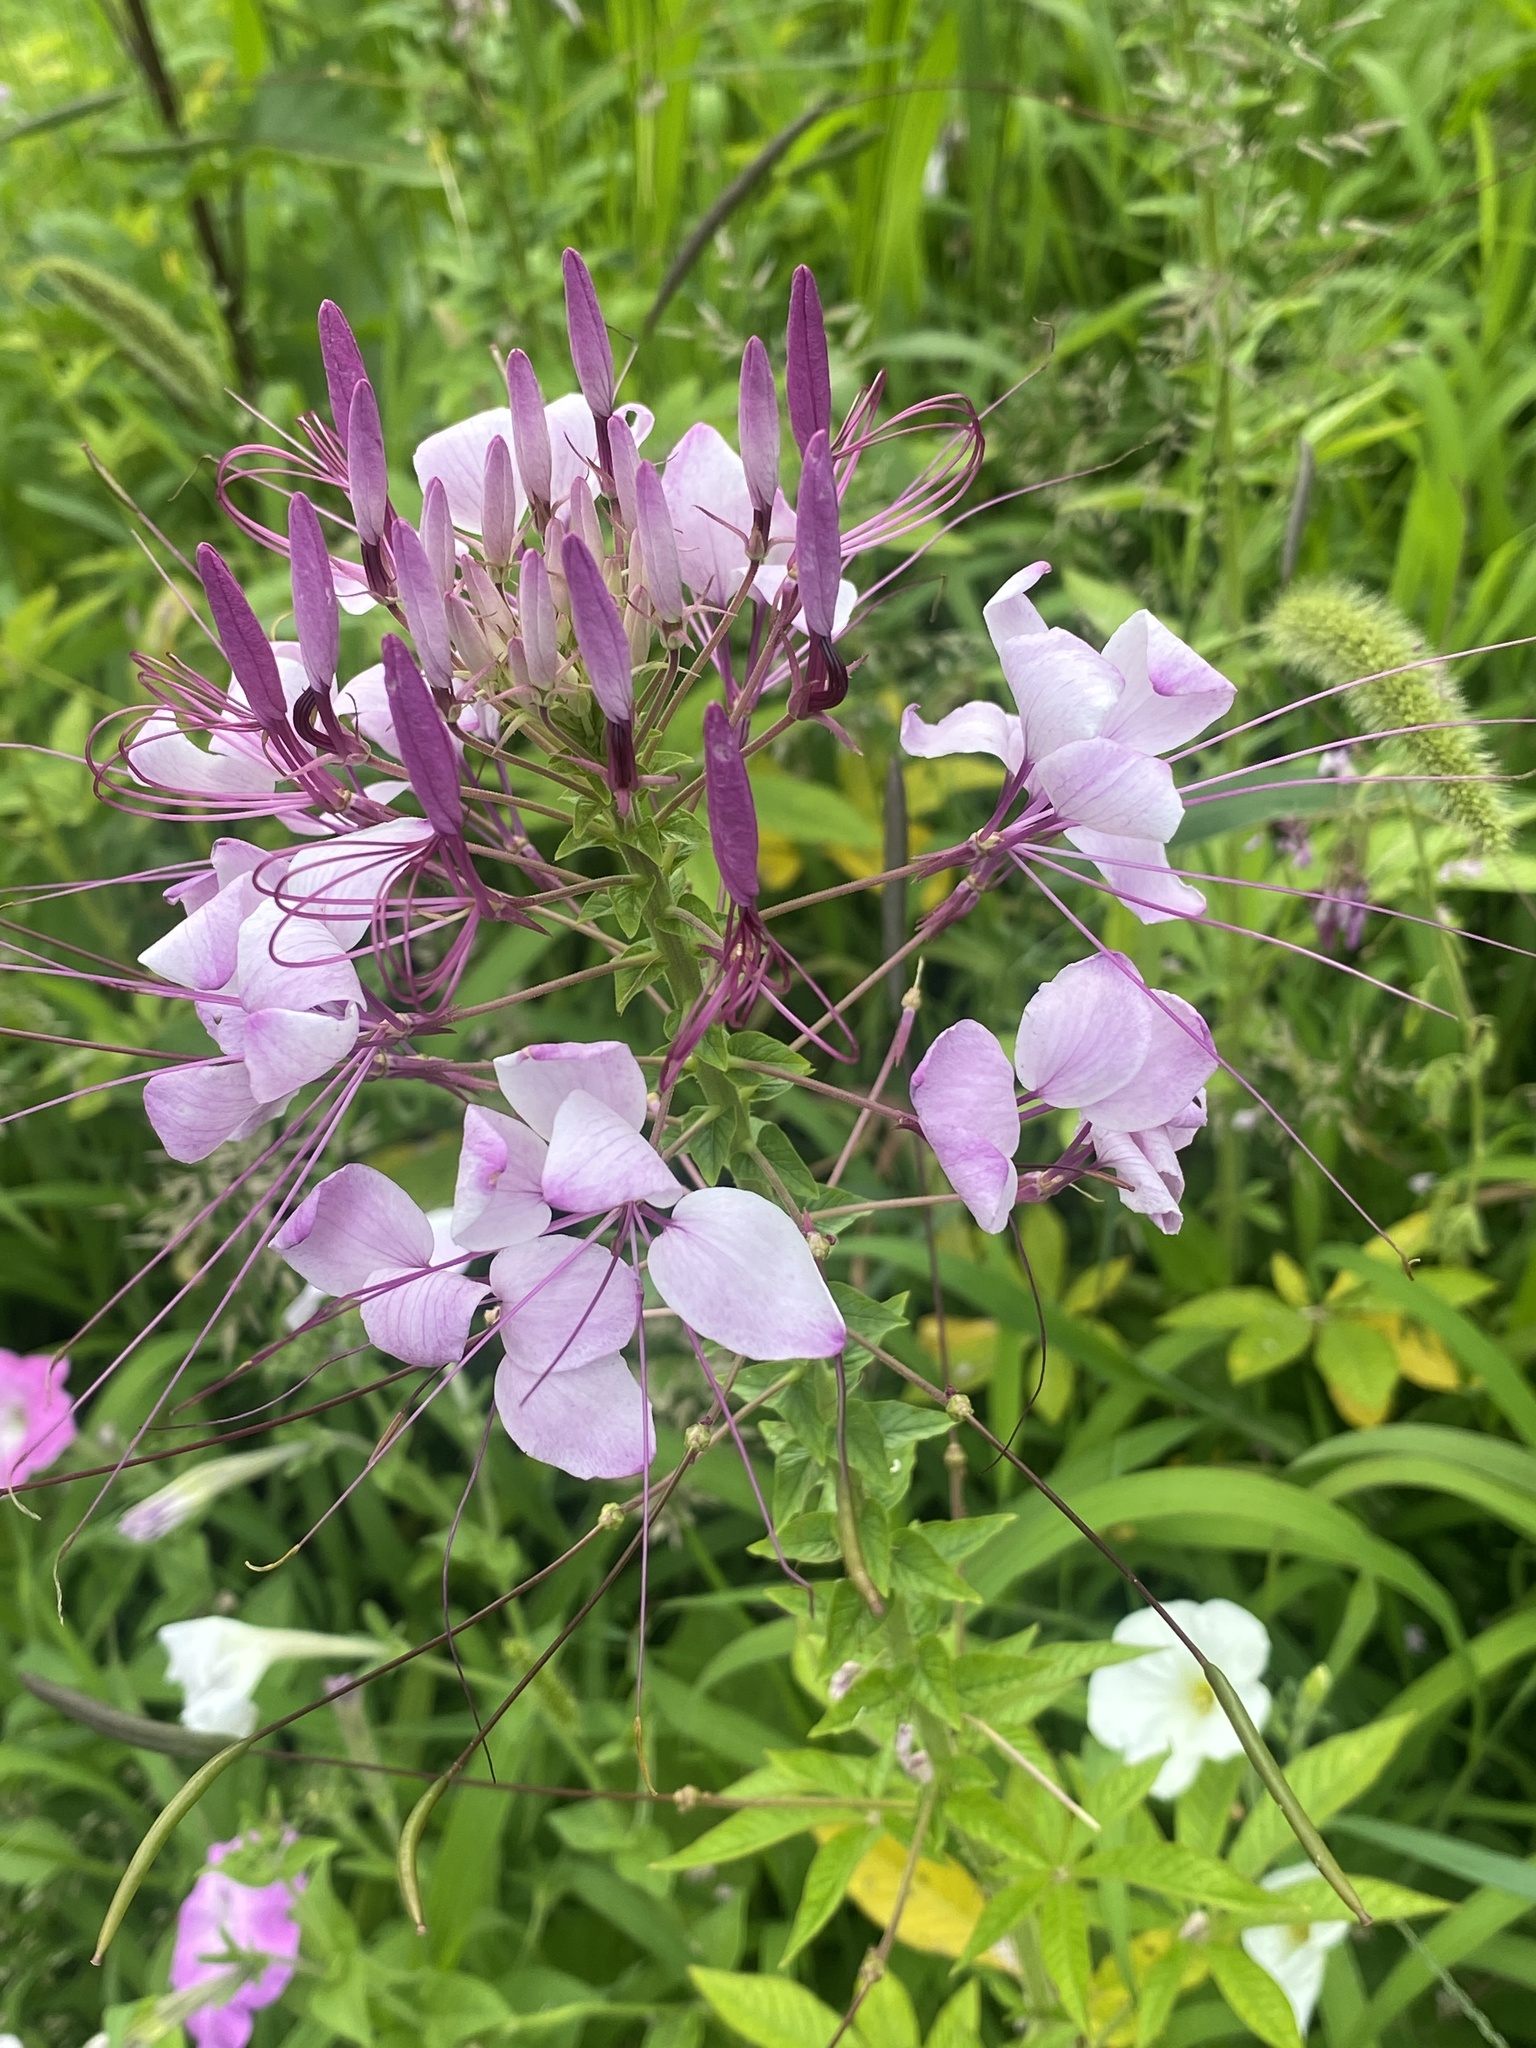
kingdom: Plantae
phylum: Tracheophyta
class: Magnoliopsida
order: Brassicales
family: Cleomaceae
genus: Tarenaya
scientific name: Tarenaya houtteana
